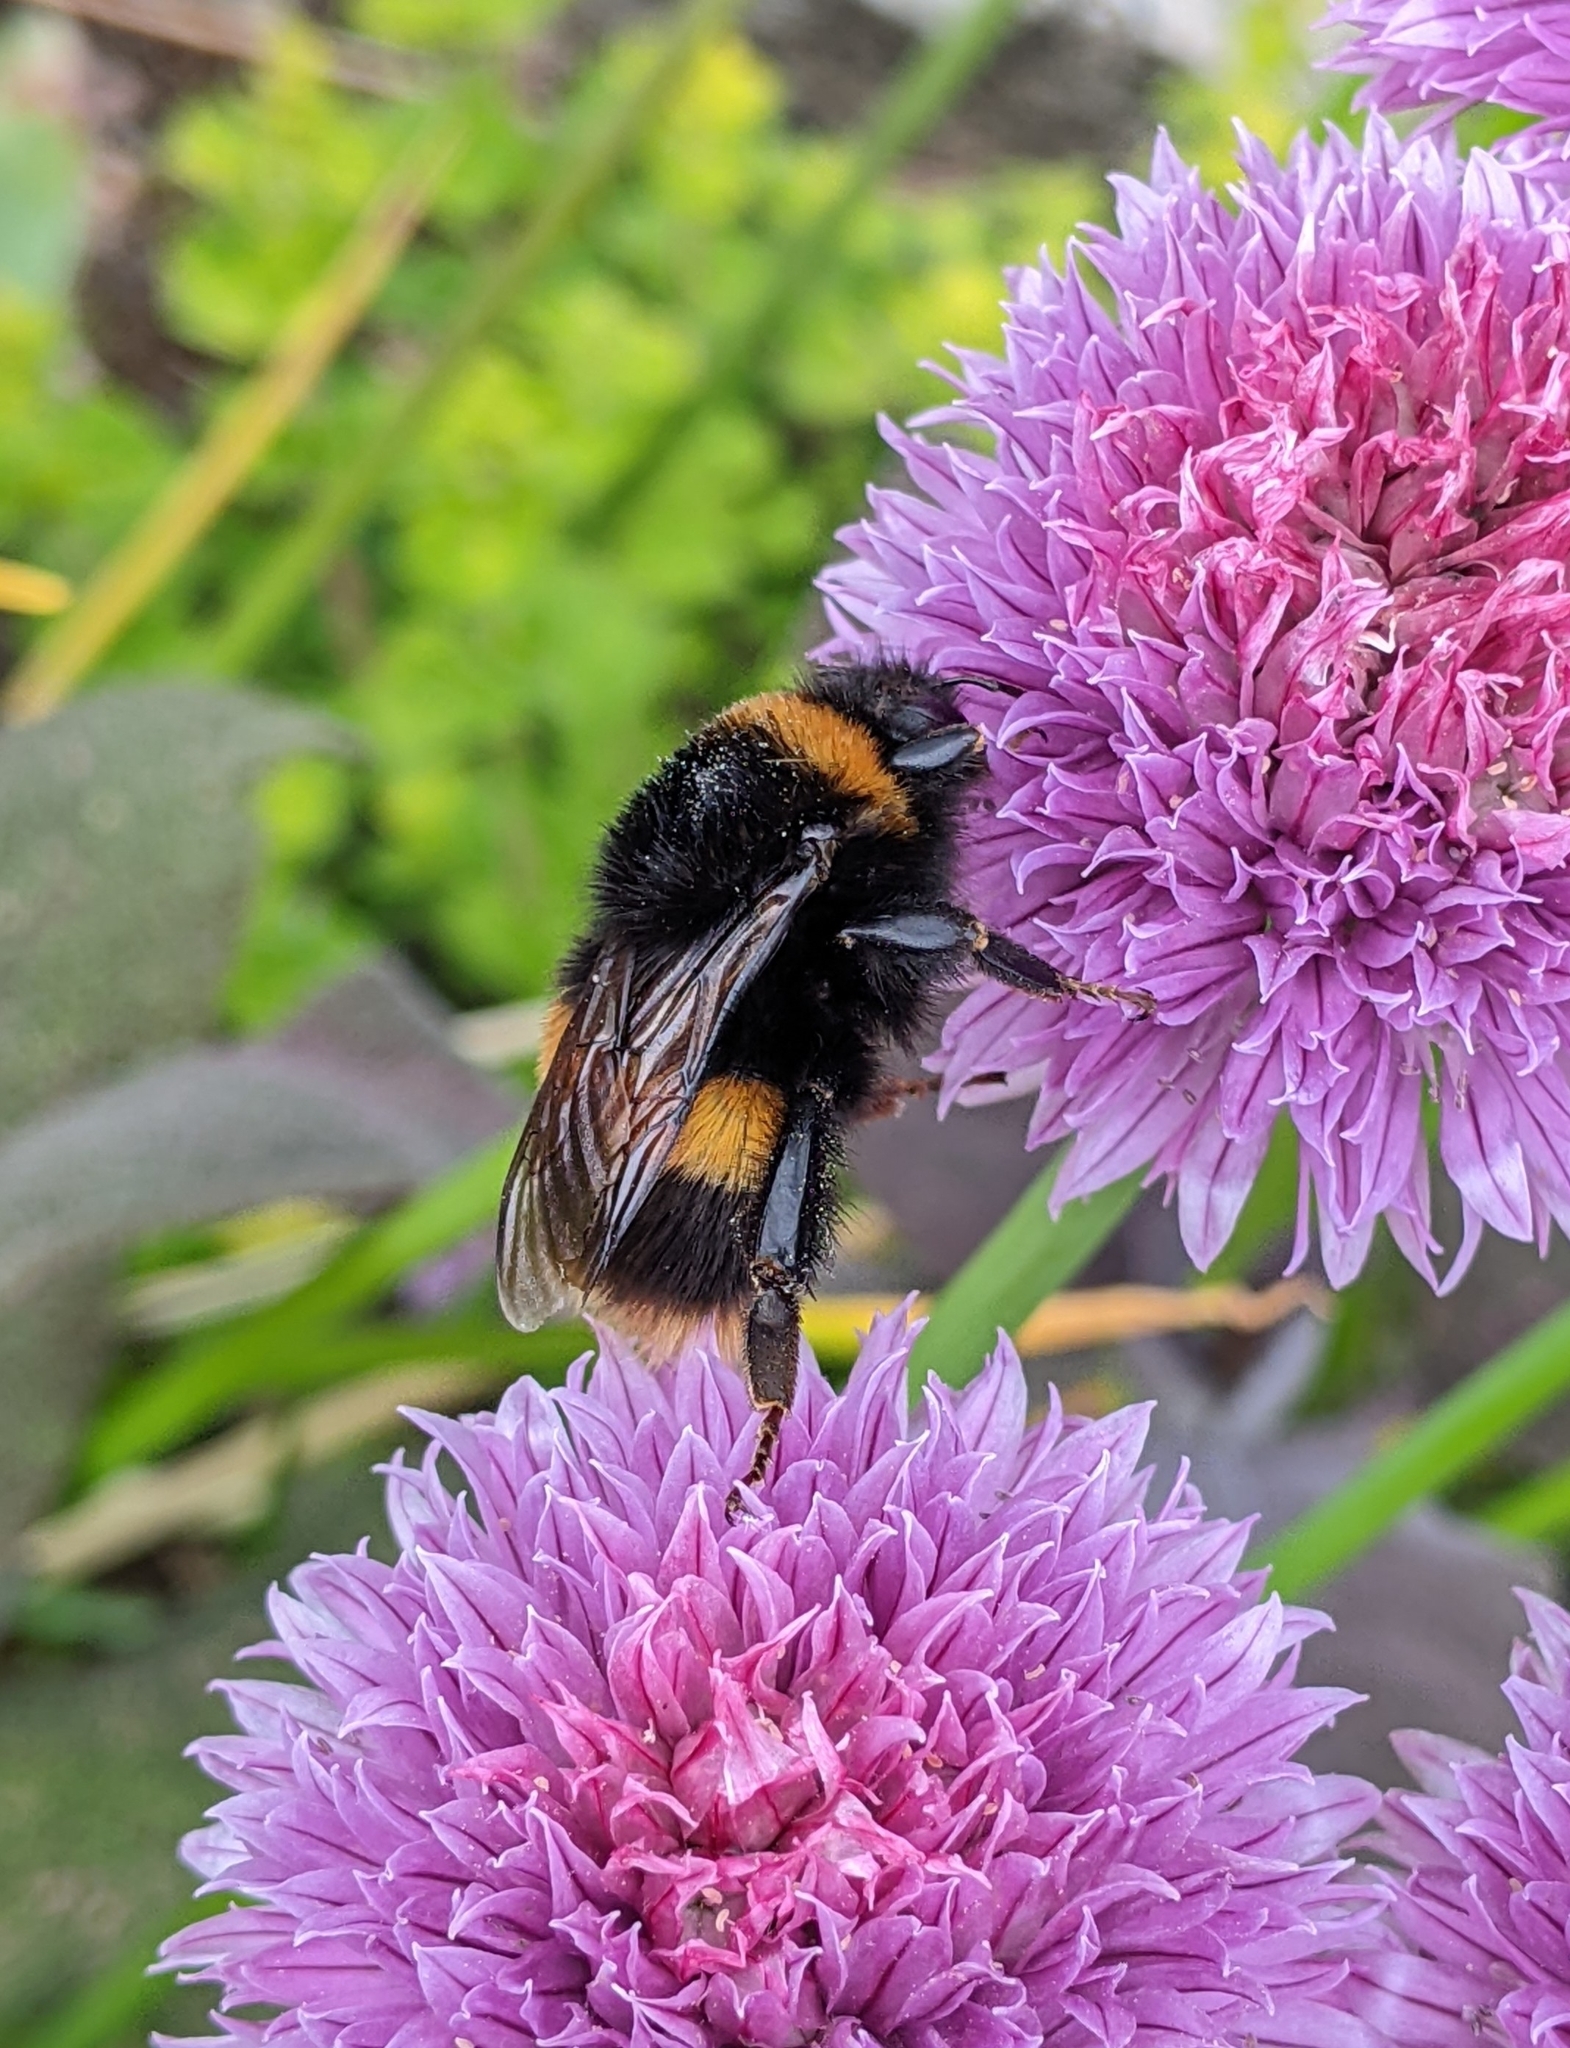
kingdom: Animalia
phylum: Arthropoda
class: Insecta
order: Hymenoptera
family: Apidae
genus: Bombus
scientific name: Bombus terrestris
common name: Buff-tailed bumblebee
